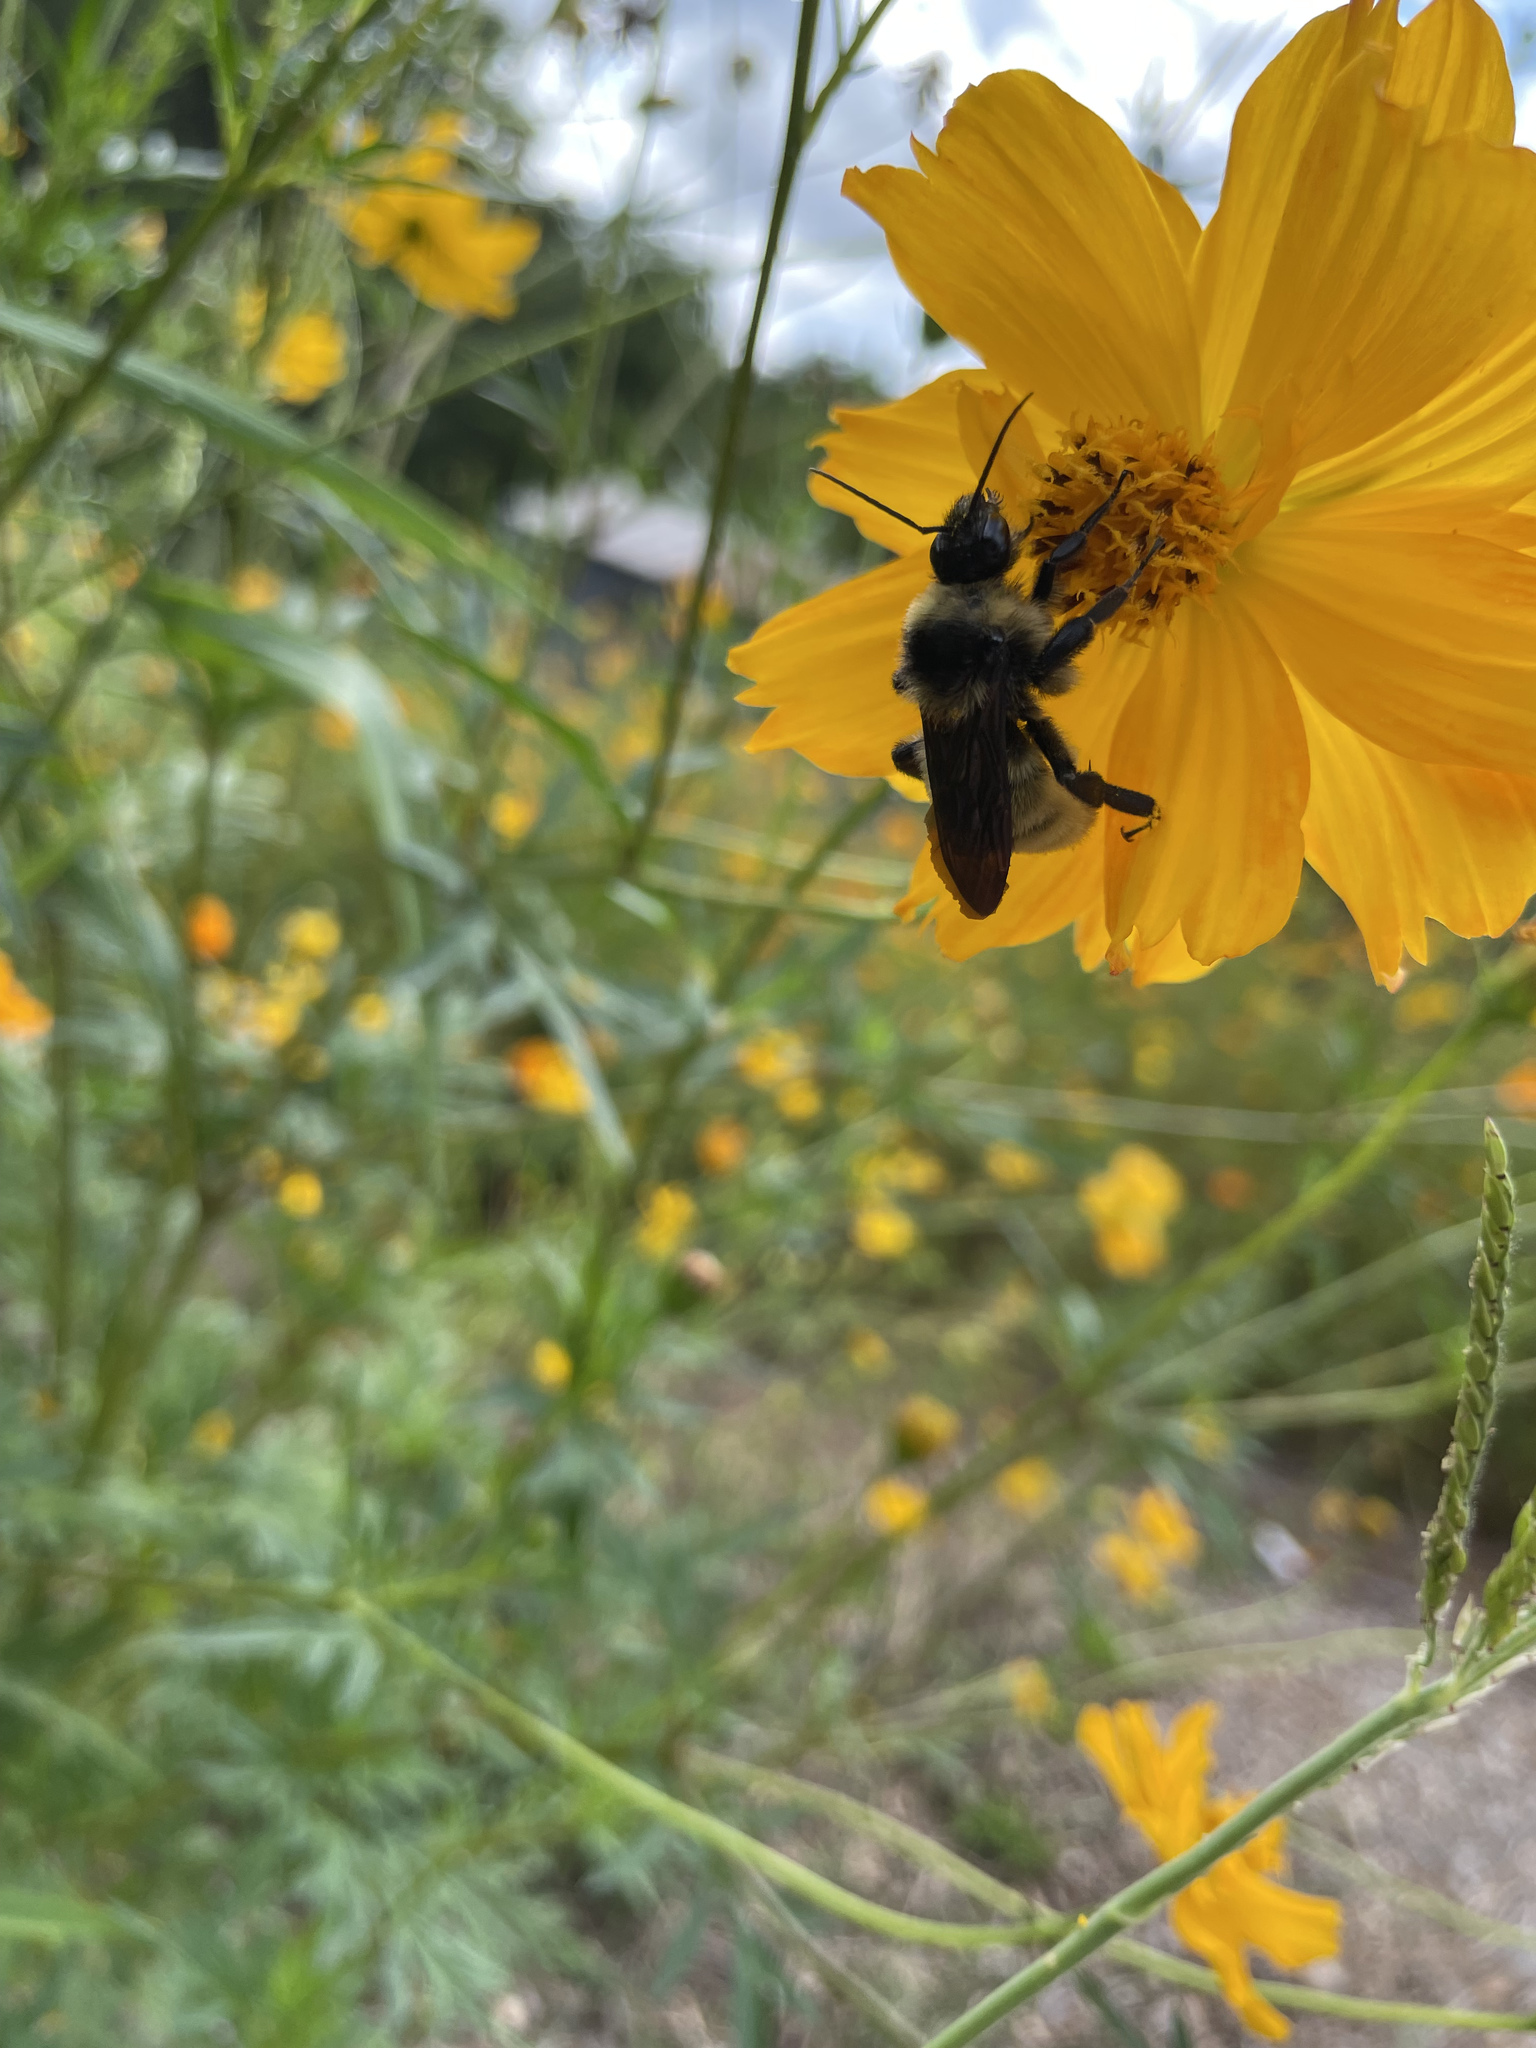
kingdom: Animalia
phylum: Arthropoda
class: Insecta
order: Hymenoptera
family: Apidae
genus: Bombus
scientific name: Bombus pensylvanicus
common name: Bumble bee
